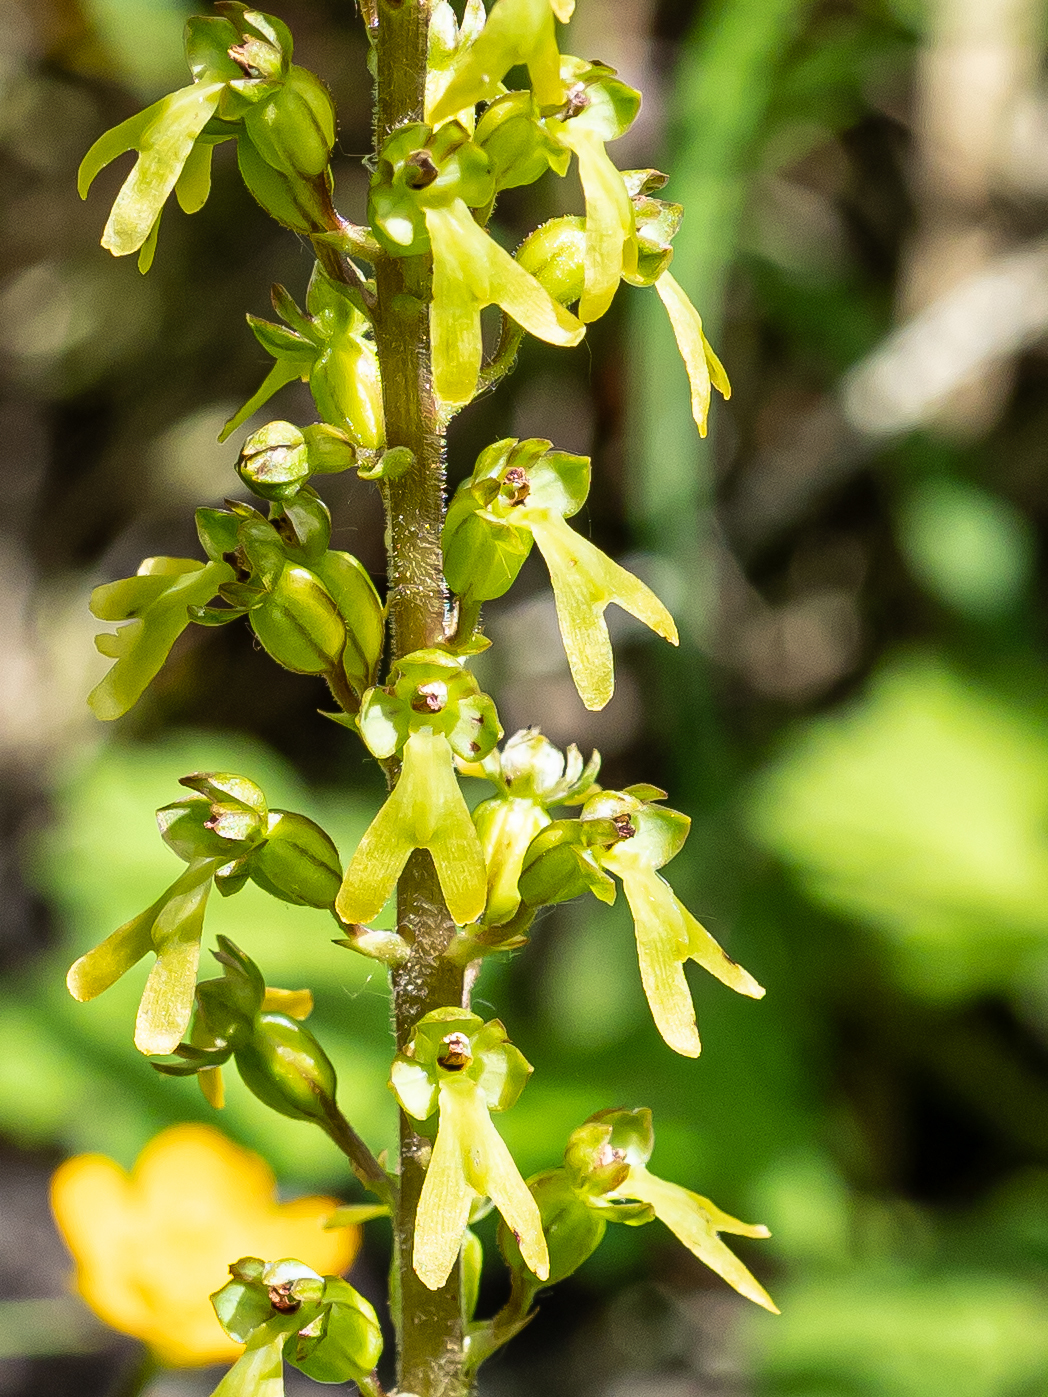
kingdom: Plantae
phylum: Tracheophyta
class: Liliopsida
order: Asparagales
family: Orchidaceae
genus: Neottia
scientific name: Neottia ovata
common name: Common twayblade
